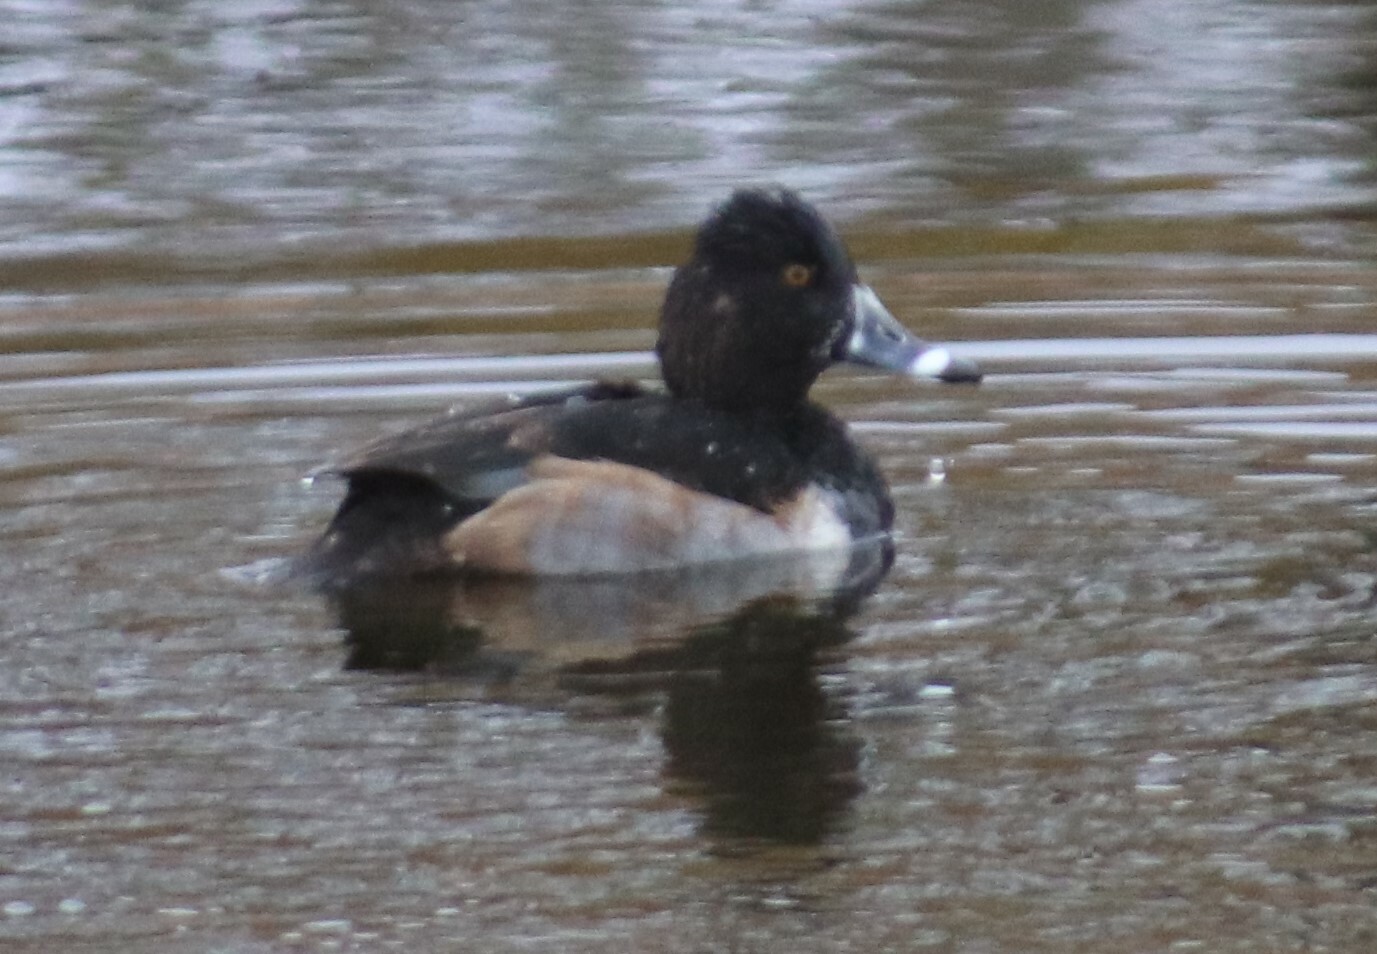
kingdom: Animalia
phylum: Chordata
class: Aves
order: Anseriformes
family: Anatidae
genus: Aythya
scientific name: Aythya collaris
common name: Ring-necked duck
